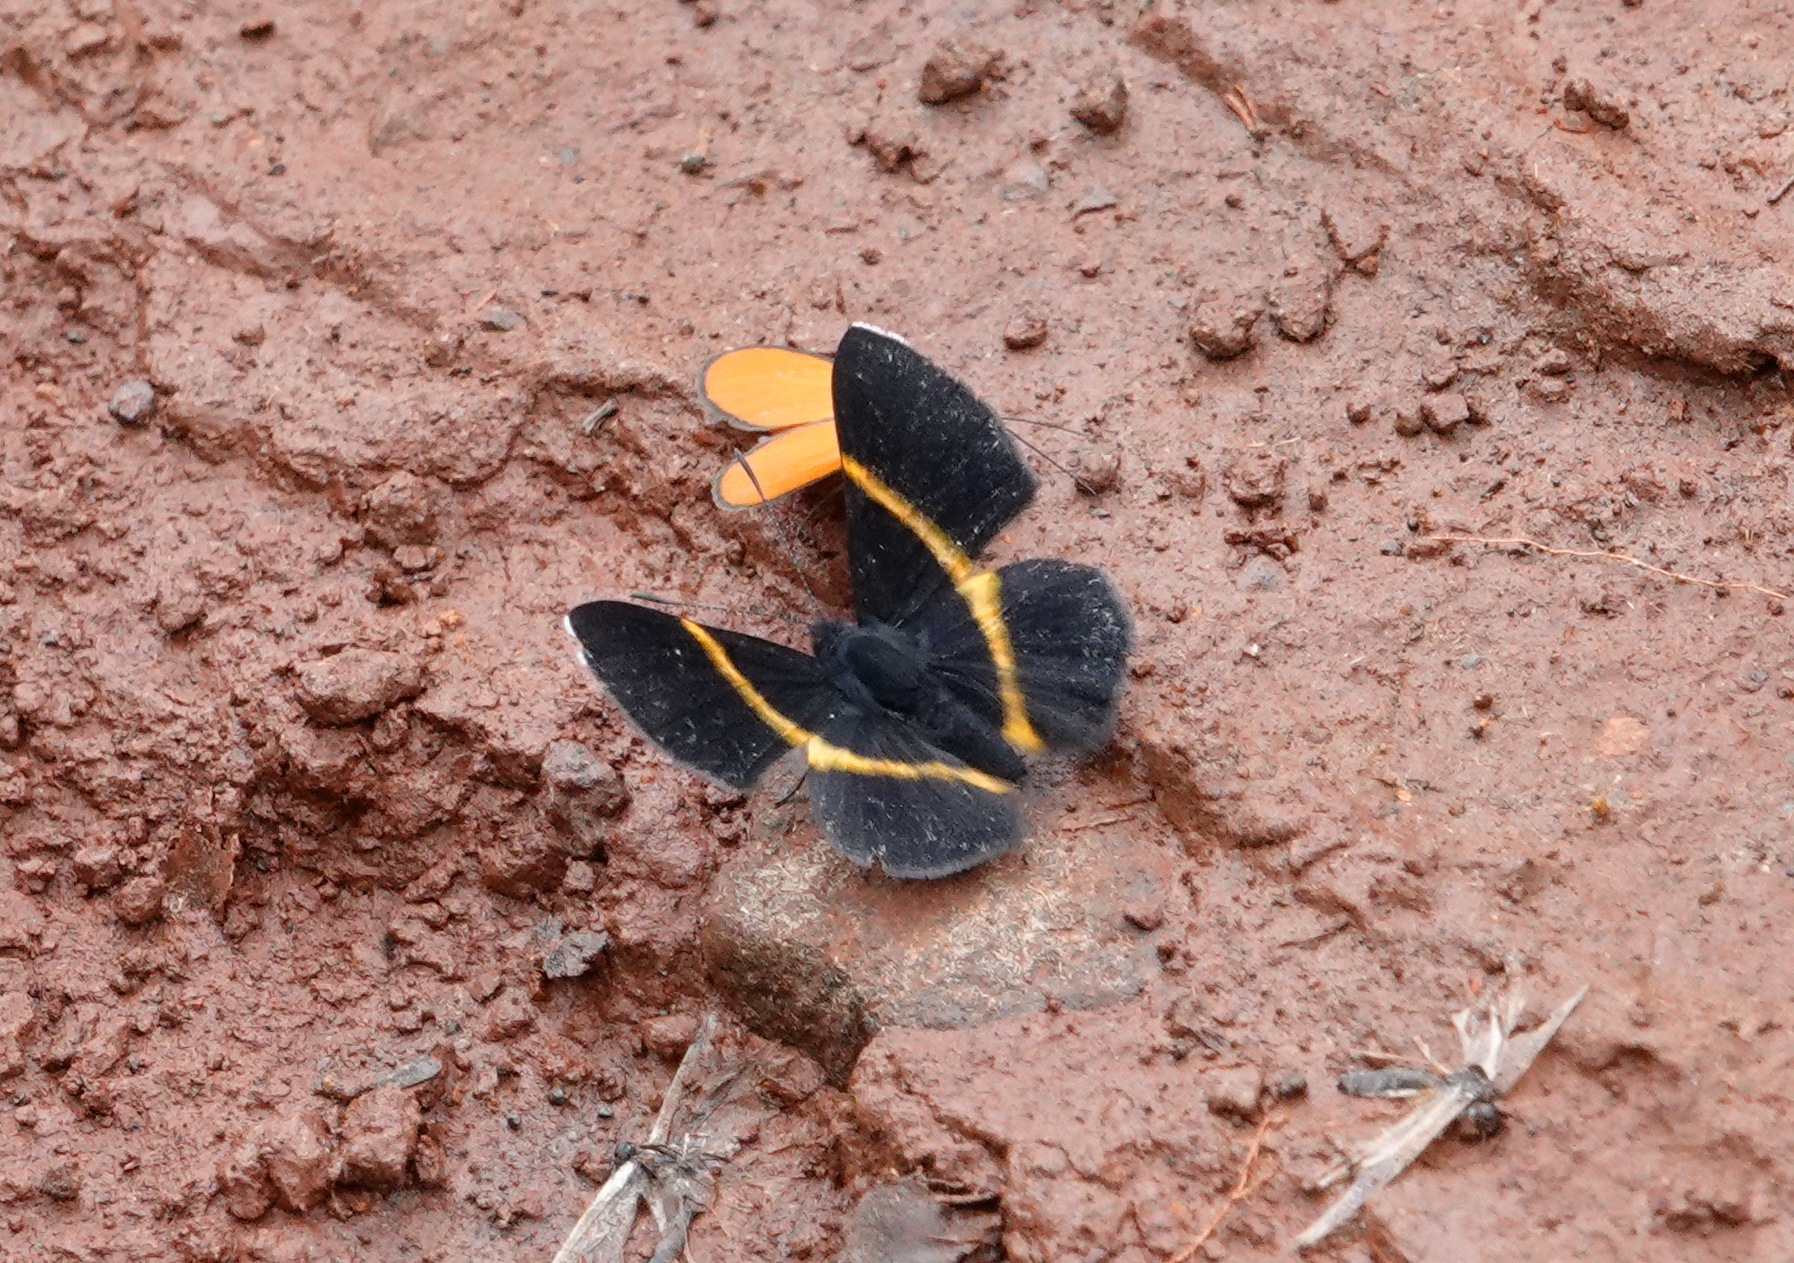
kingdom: Animalia
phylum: Arthropoda
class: Insecta
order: Lepidoptera
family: Riodinidae
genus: Parcella
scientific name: Parcella amarynthina
